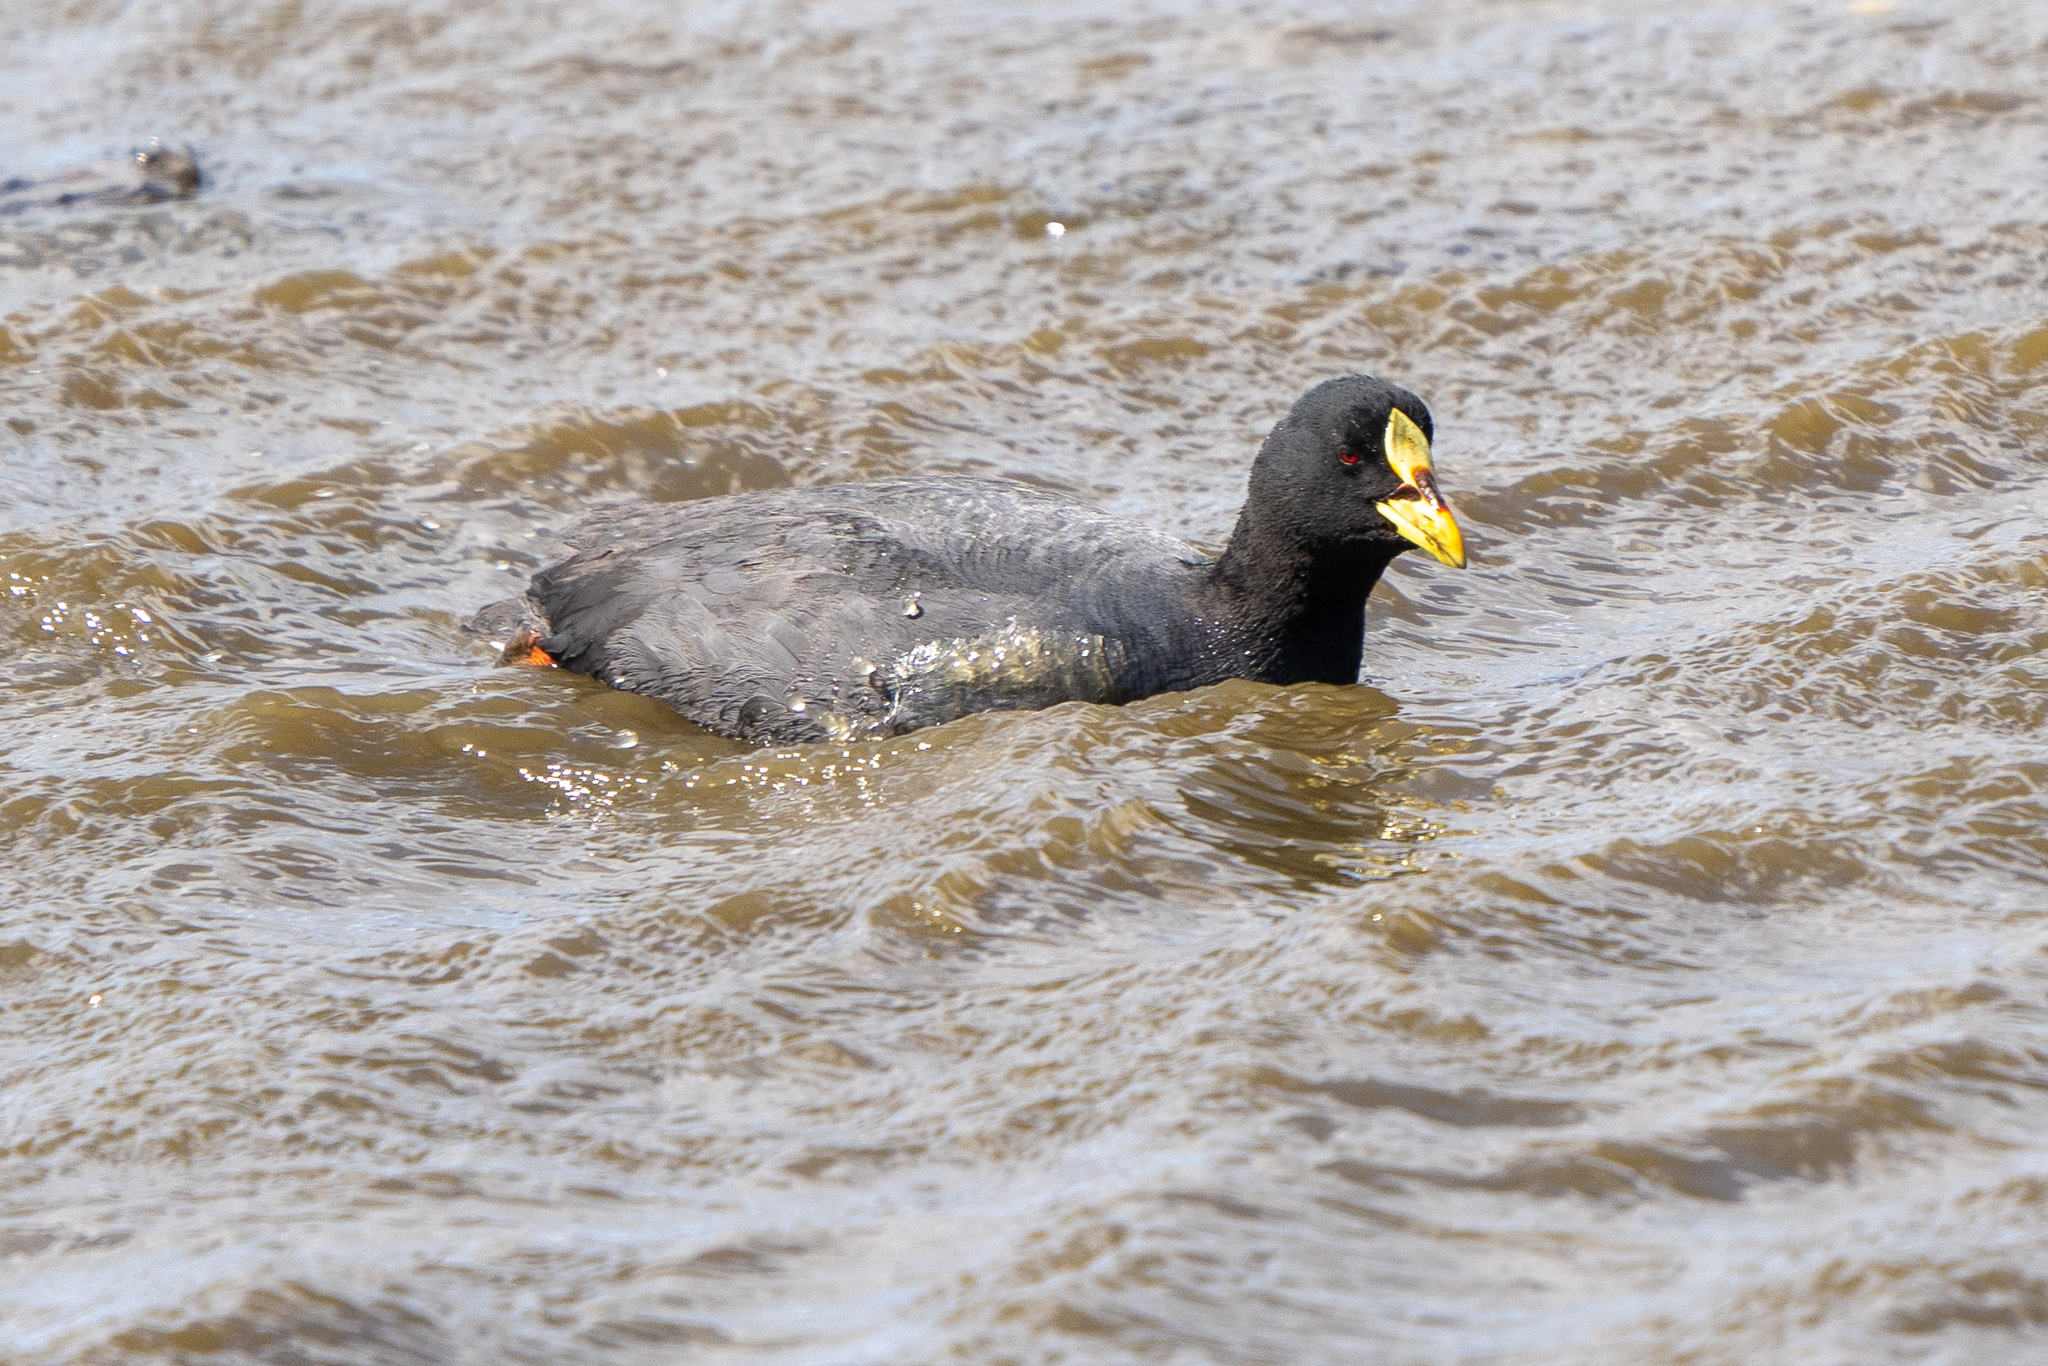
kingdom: Animalia
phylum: Chordata
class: Aves
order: Gruiformes
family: Rallidae
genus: Fulica
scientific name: Fulica armillata
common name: Red-gartered coot
